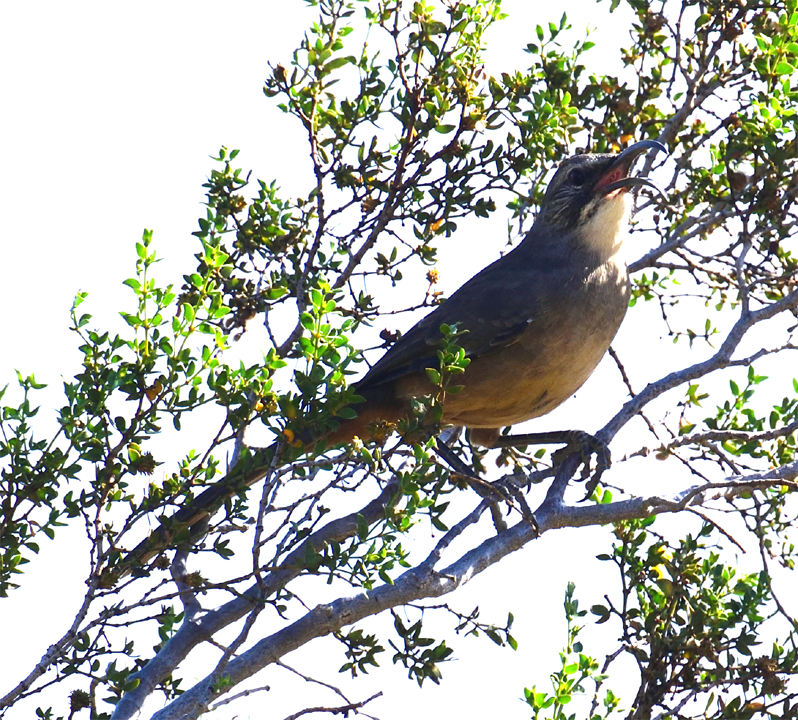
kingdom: Animalia
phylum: Chordata
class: Aves
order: Passeriformes
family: Mimidae
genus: Toxostoma
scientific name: Toxostoma redivivum
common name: California thrasher
